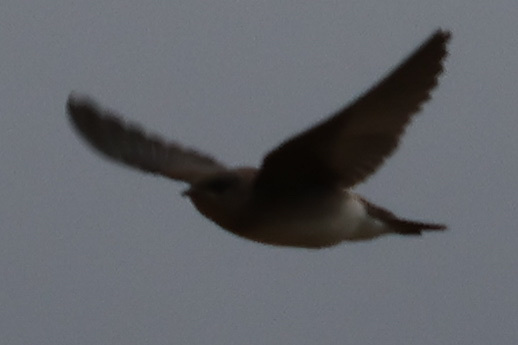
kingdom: Animalia
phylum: Chordata
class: Aves
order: Passeriformes
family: Hirundinidae
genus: Stelgidopteryx
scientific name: Stelgidopteryx serripennis
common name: Northern rough-winged swallow
